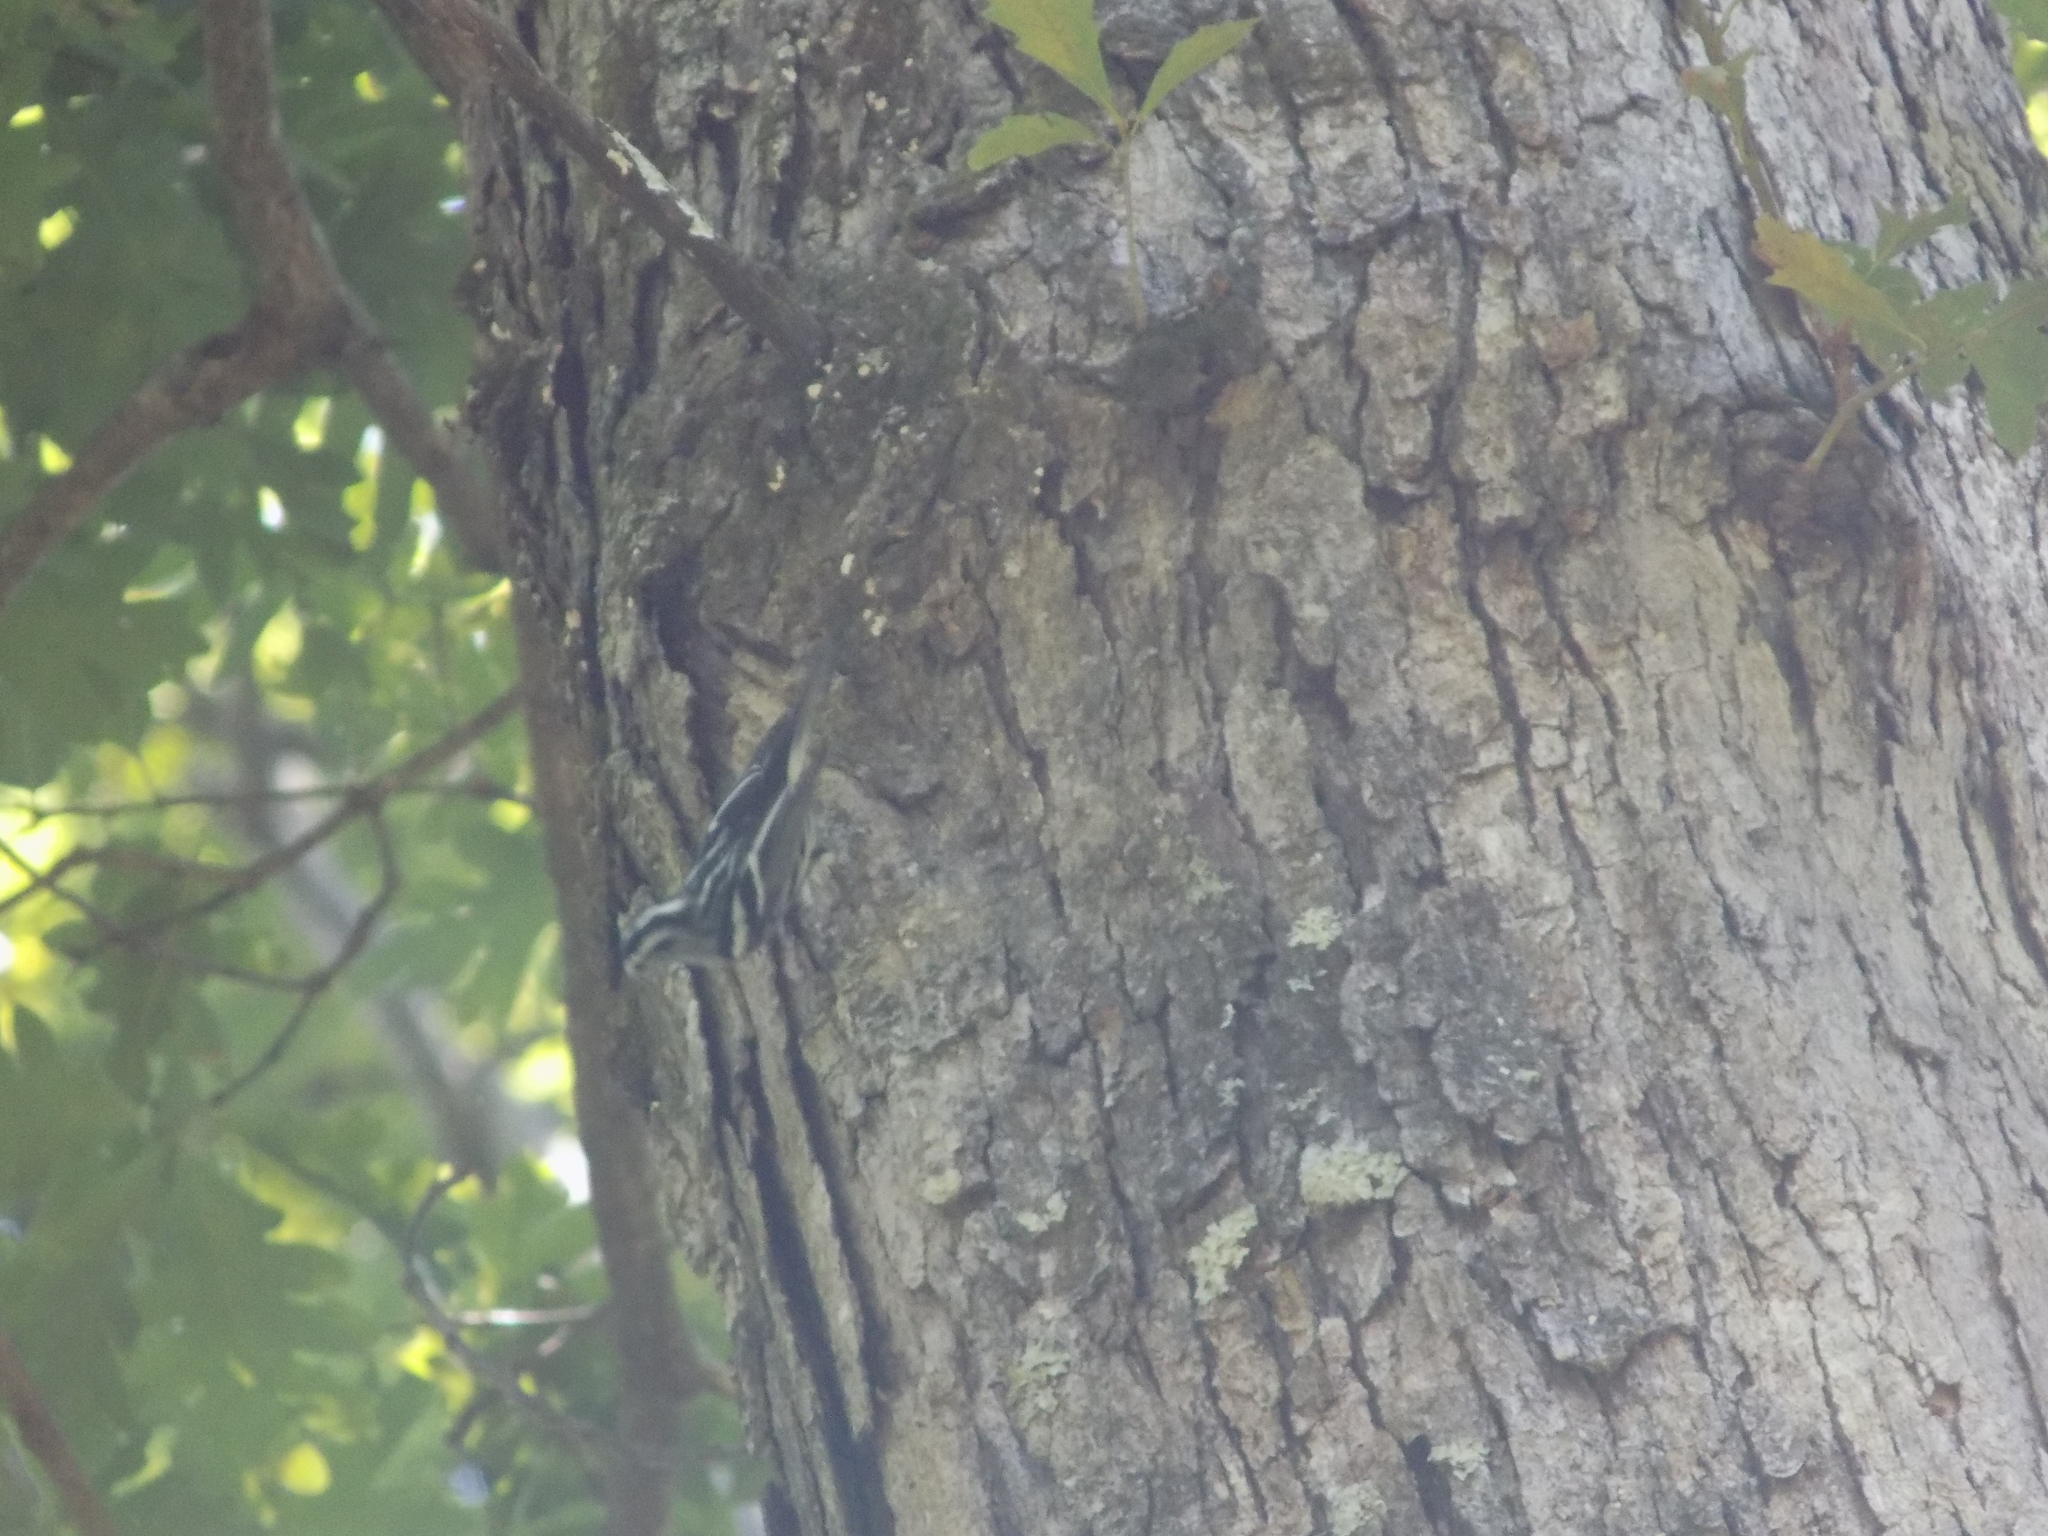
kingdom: Animalia
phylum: Chordata
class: Aves
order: Passeriformes
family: Parulidae
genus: Mniotilta
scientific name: Mniotilta varia
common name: Black-and-white warbler
